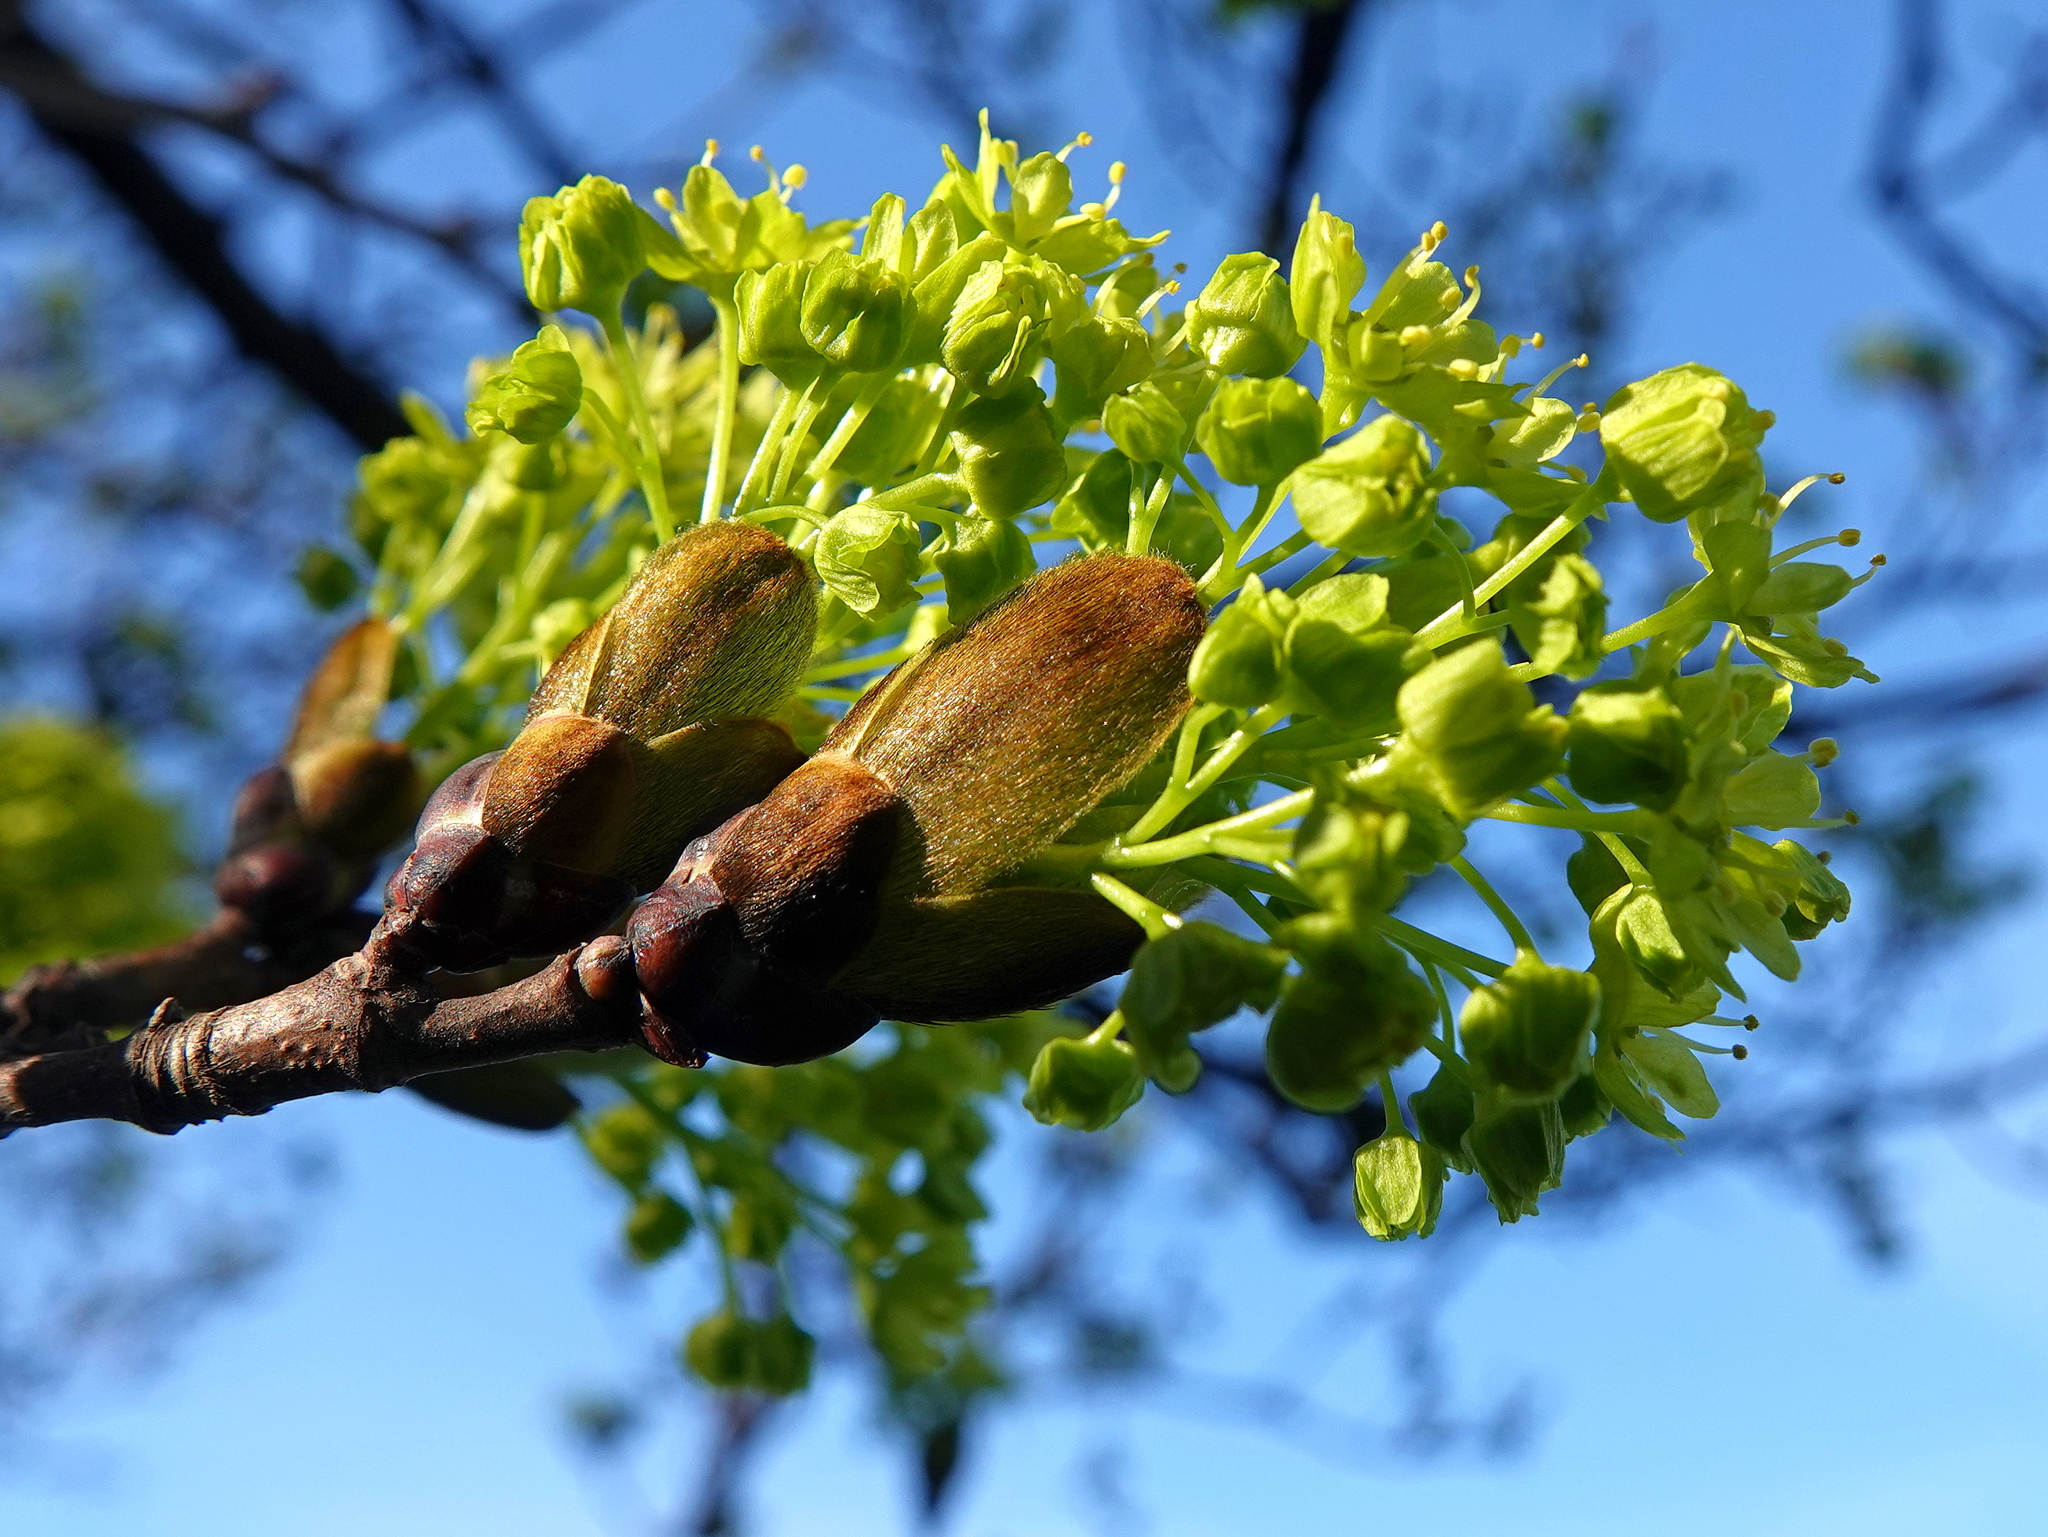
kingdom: Plantae
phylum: Tracheophyta
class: Magnoliopsida
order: Sapindales
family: Sapindaceae
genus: Acer
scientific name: Acer platanoides
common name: Norway maple
